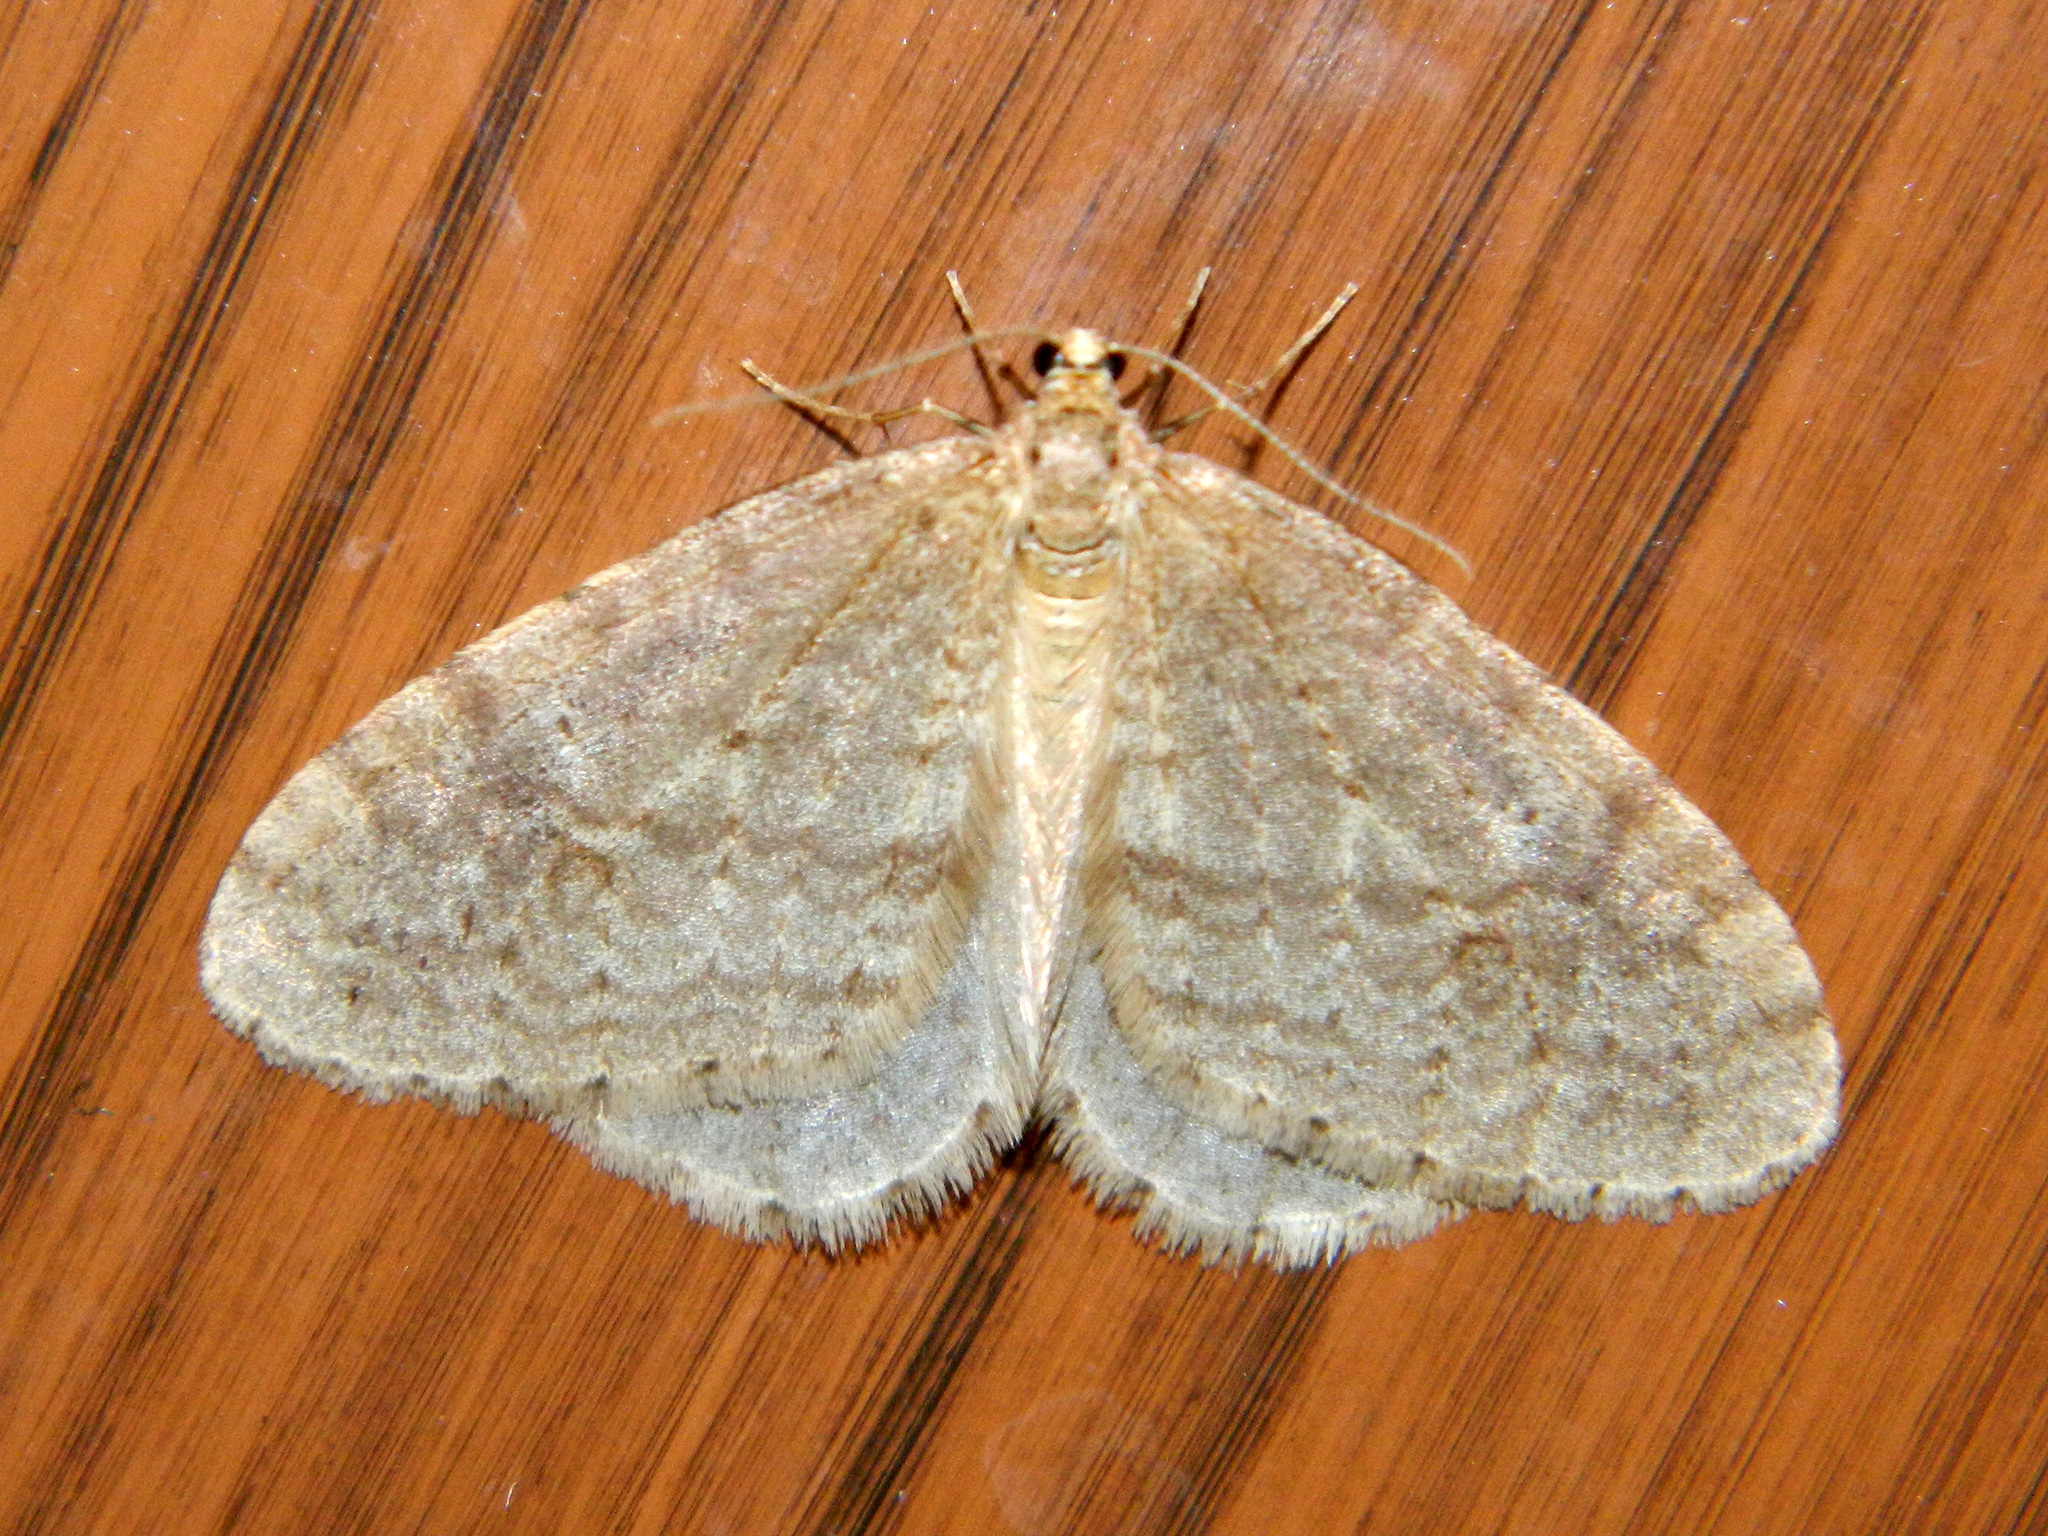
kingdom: Animalia
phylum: Arthropoda
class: Insecta
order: Lepidoptera
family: Geometridae
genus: Operophtera
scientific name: Operophtera bruceata
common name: Bruce spanworm
